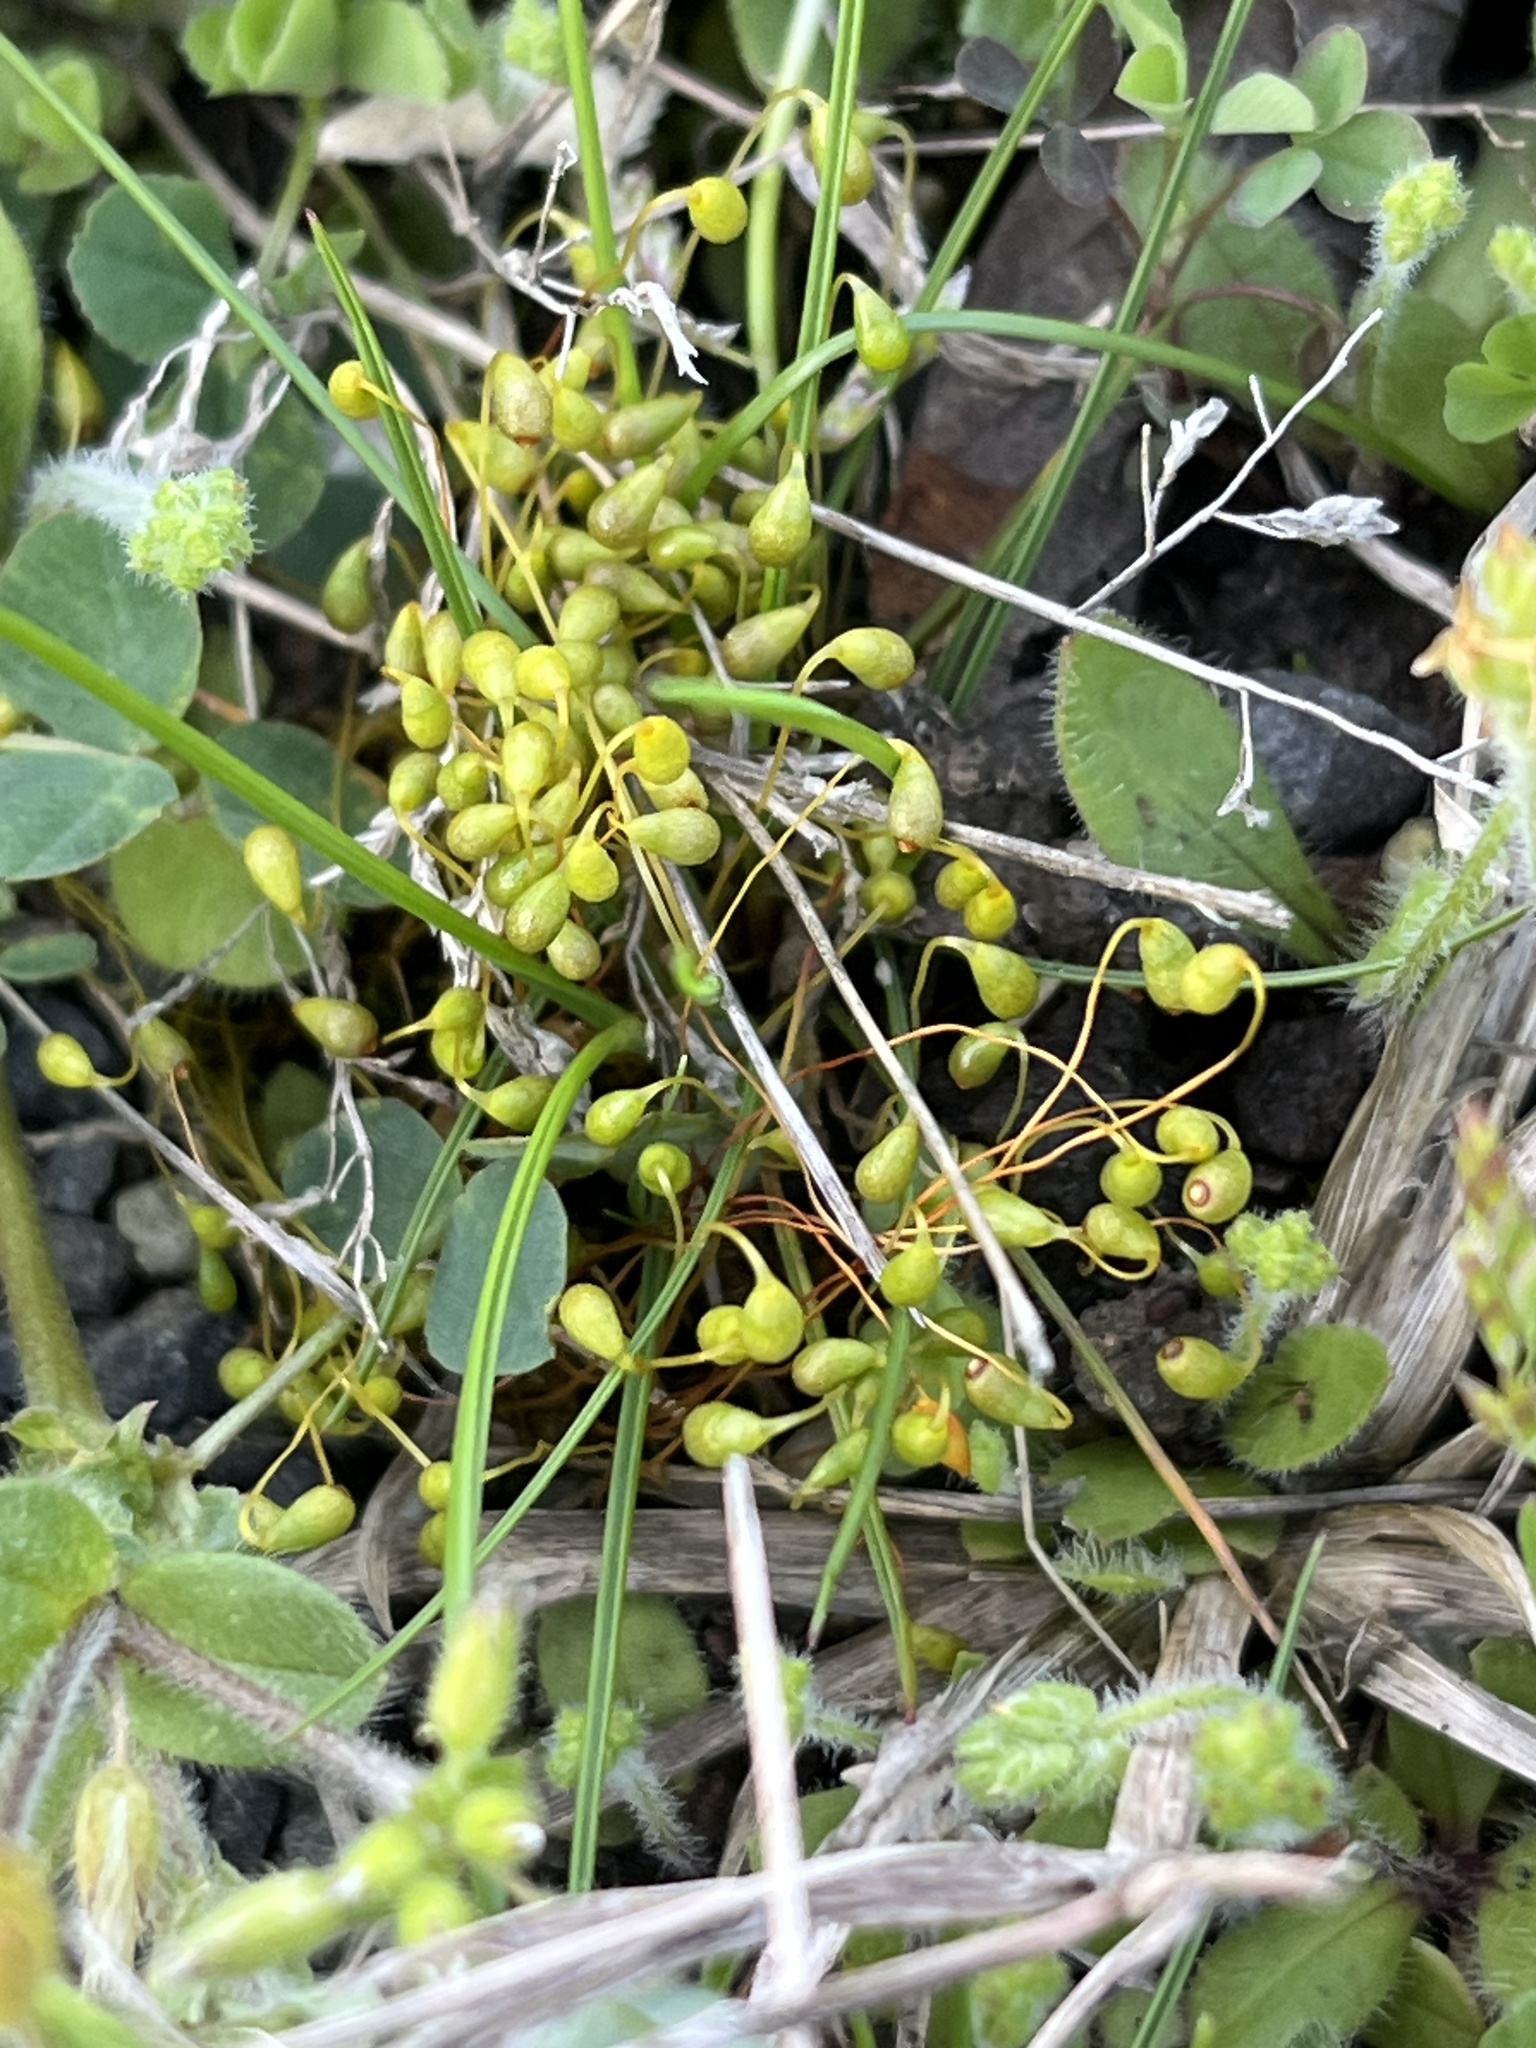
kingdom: Plantae
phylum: Bryophyta
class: Bryopsida
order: Funariales
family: Funariaceae
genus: Funaria
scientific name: Funaria hygrometrica
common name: Common cord moss
